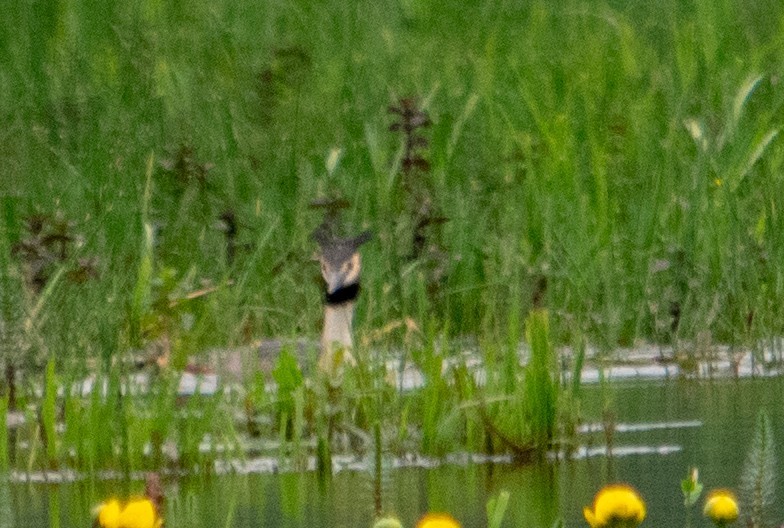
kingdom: Animalia
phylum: Chordata
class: Aves
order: Podicipediformes
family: Podicipedidae
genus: Podiceps
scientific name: Podiceps cristatus
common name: Great crested grebe
